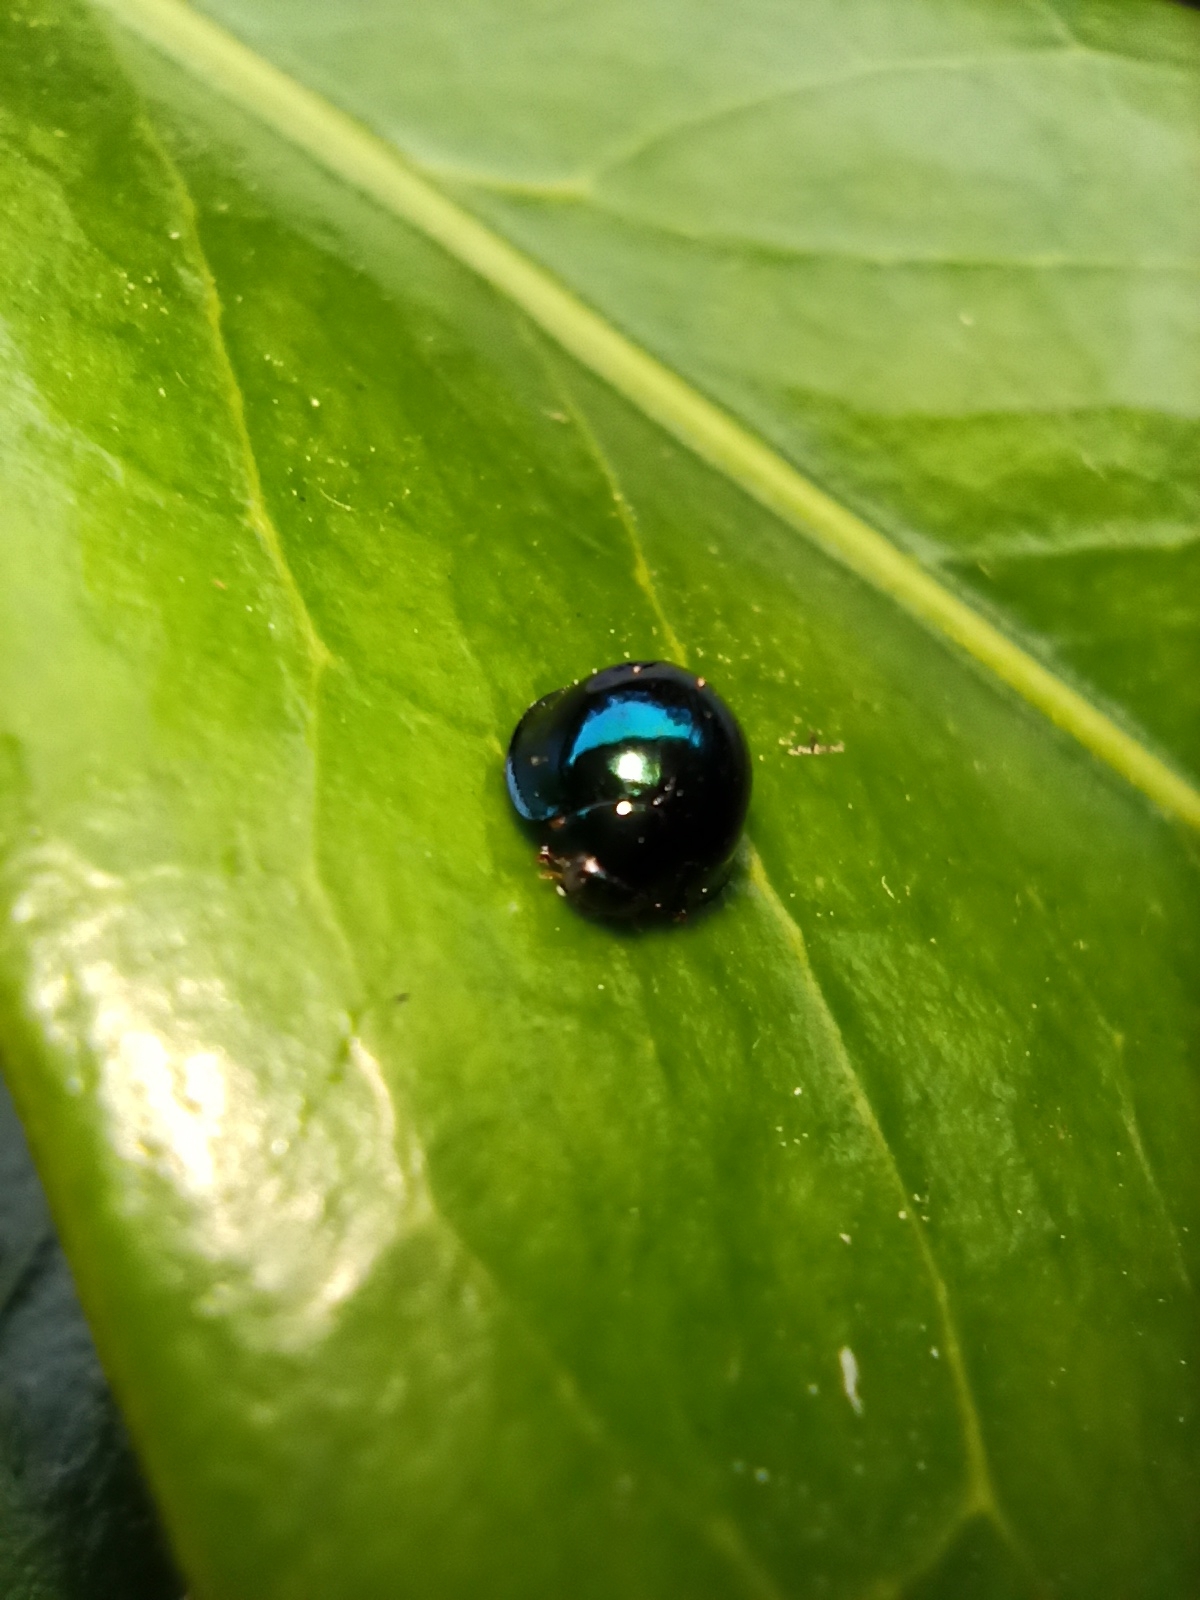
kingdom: Animalia
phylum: Arthropoda
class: Insecta
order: Coleoptera
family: Coccinellidae
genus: Halmus
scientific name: Halmus chalybeus
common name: Steel blue ladybird beetle
